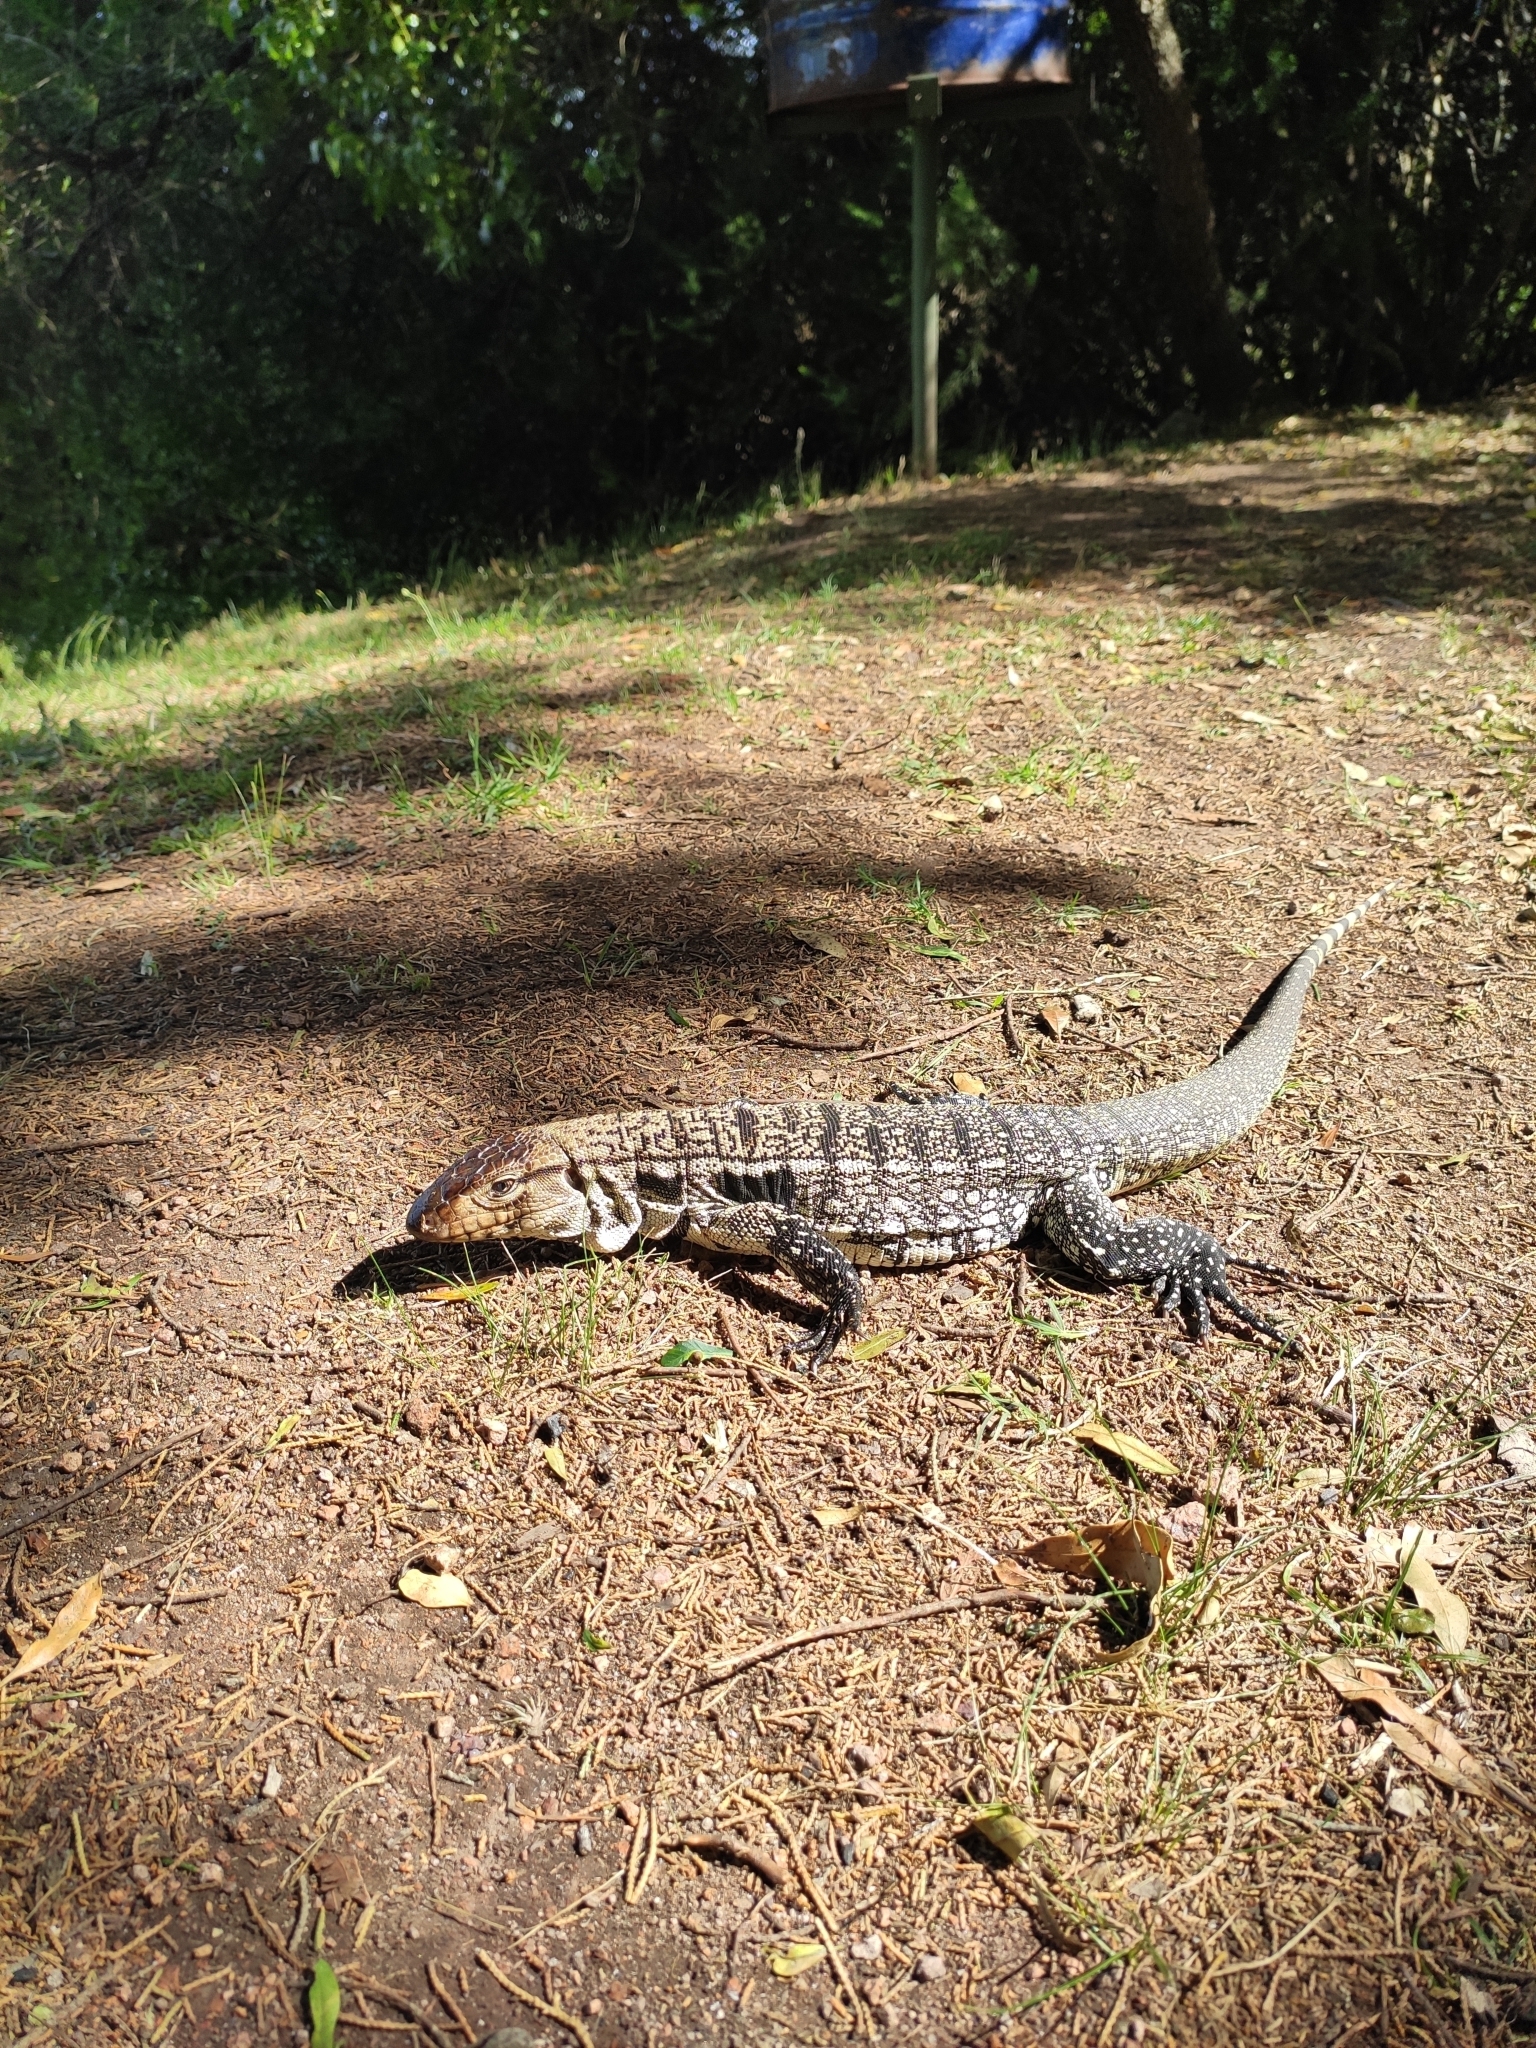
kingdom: Animalia
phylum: Chordata
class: Squamata
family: Teiidae
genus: Salvator
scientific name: Salvator merianae
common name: Argentine black and white tegu
